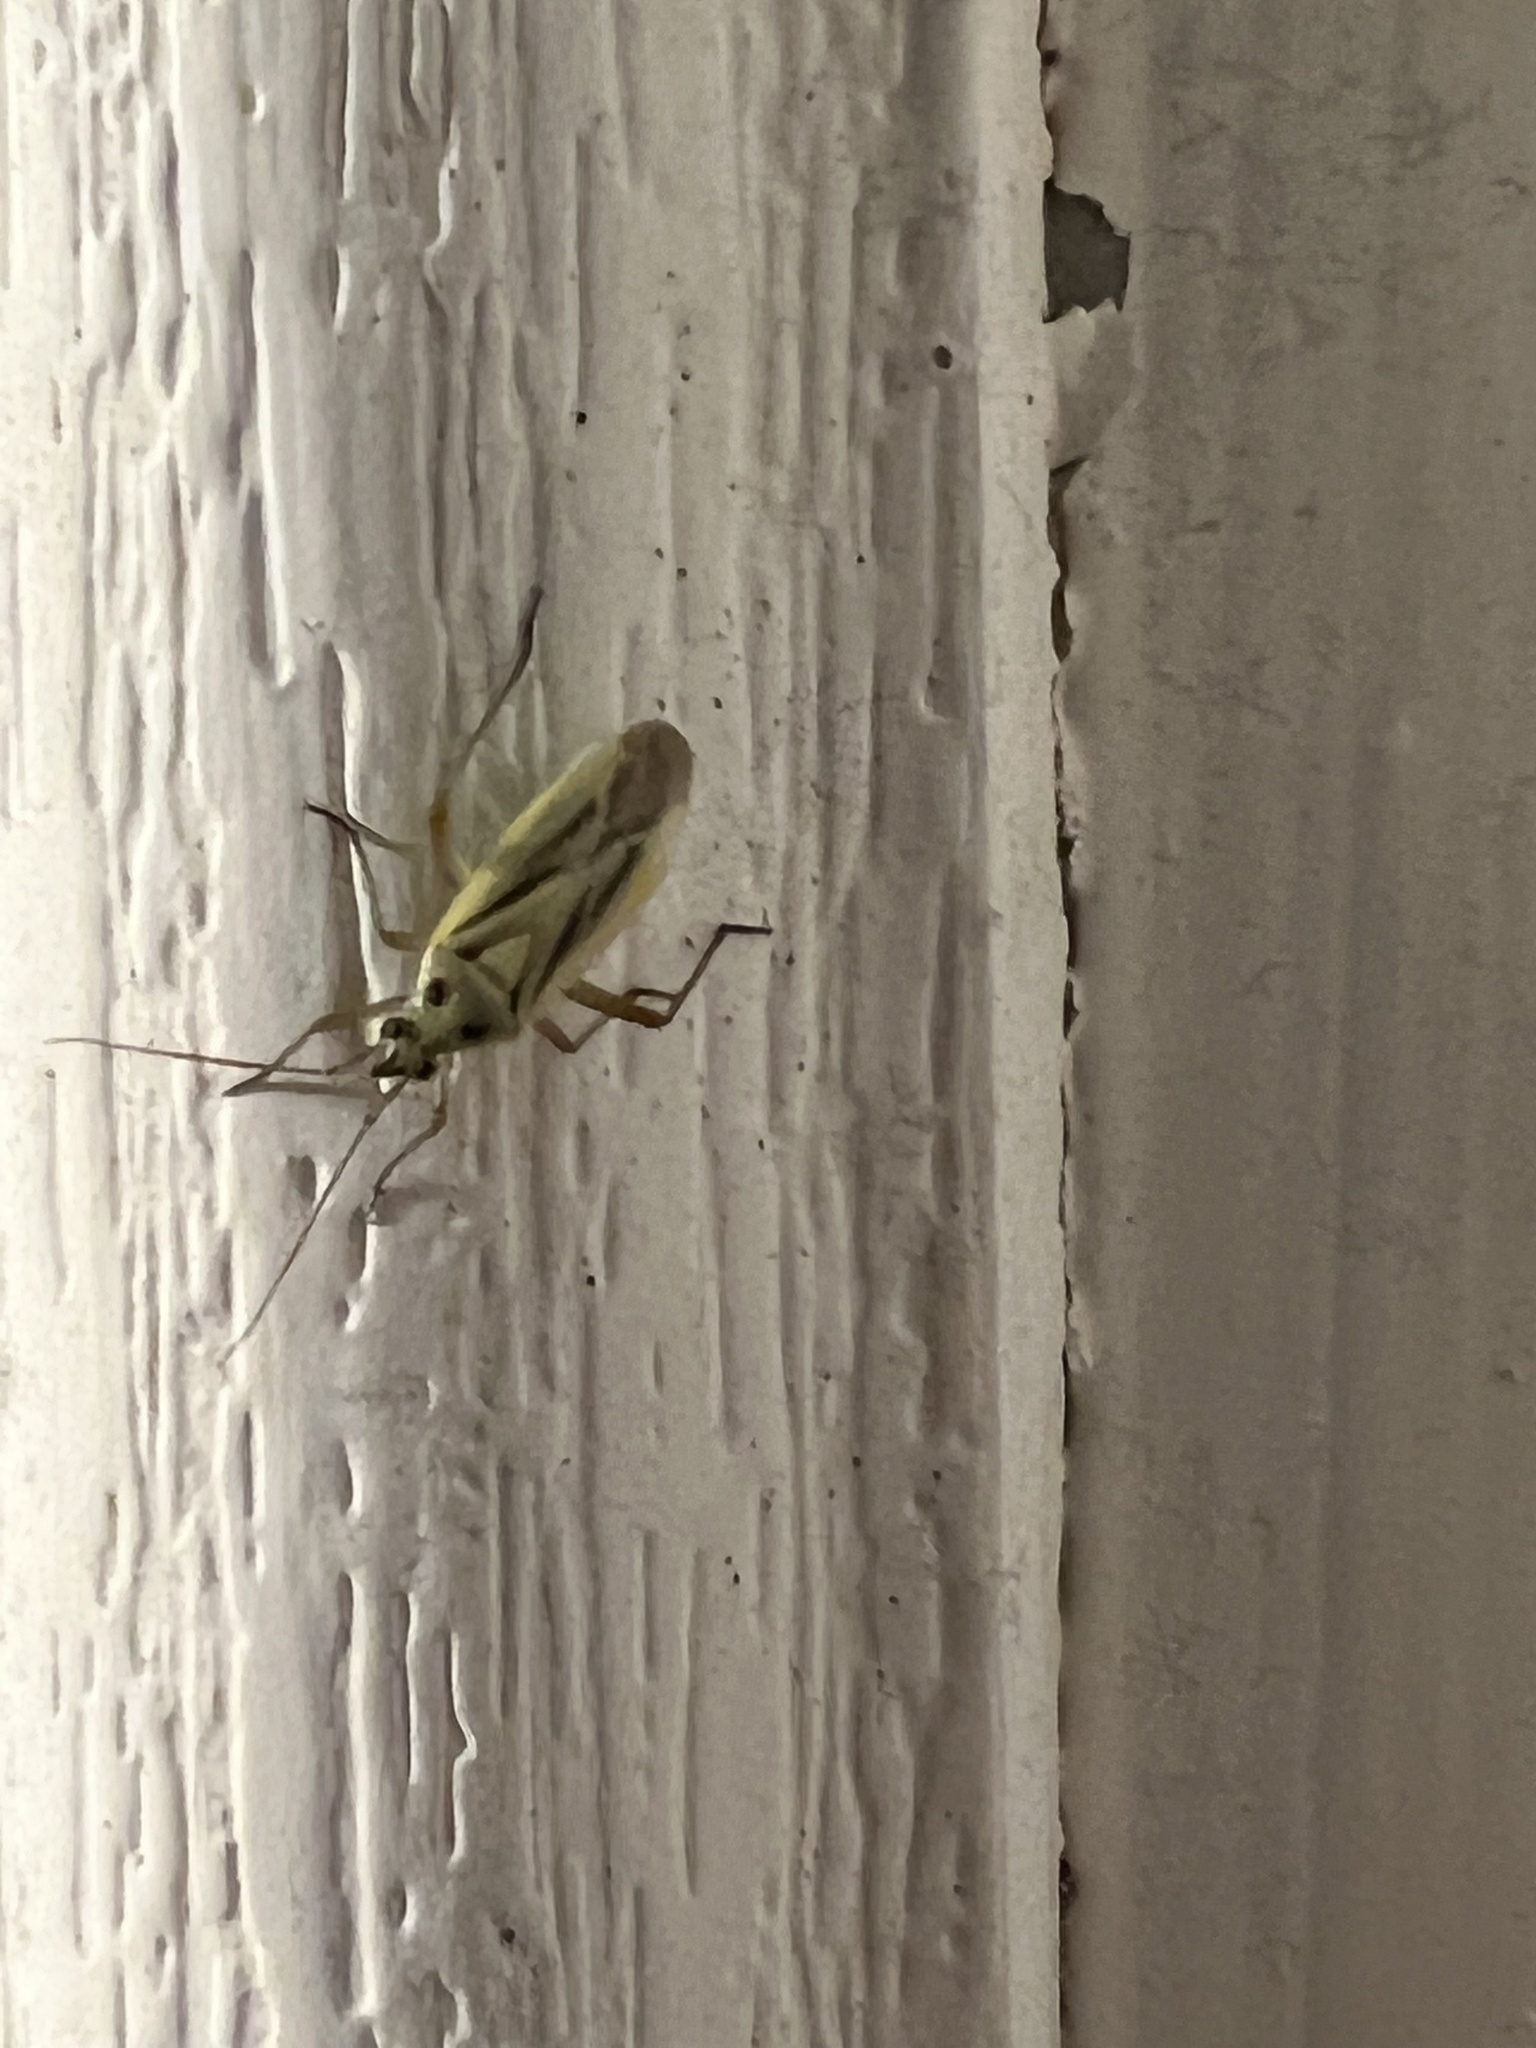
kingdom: Animalia
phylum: Arthropoda
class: Insecta
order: Hemiptera
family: Miridae
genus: Stenotus
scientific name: Stenotus binotatus
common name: Plant bug
